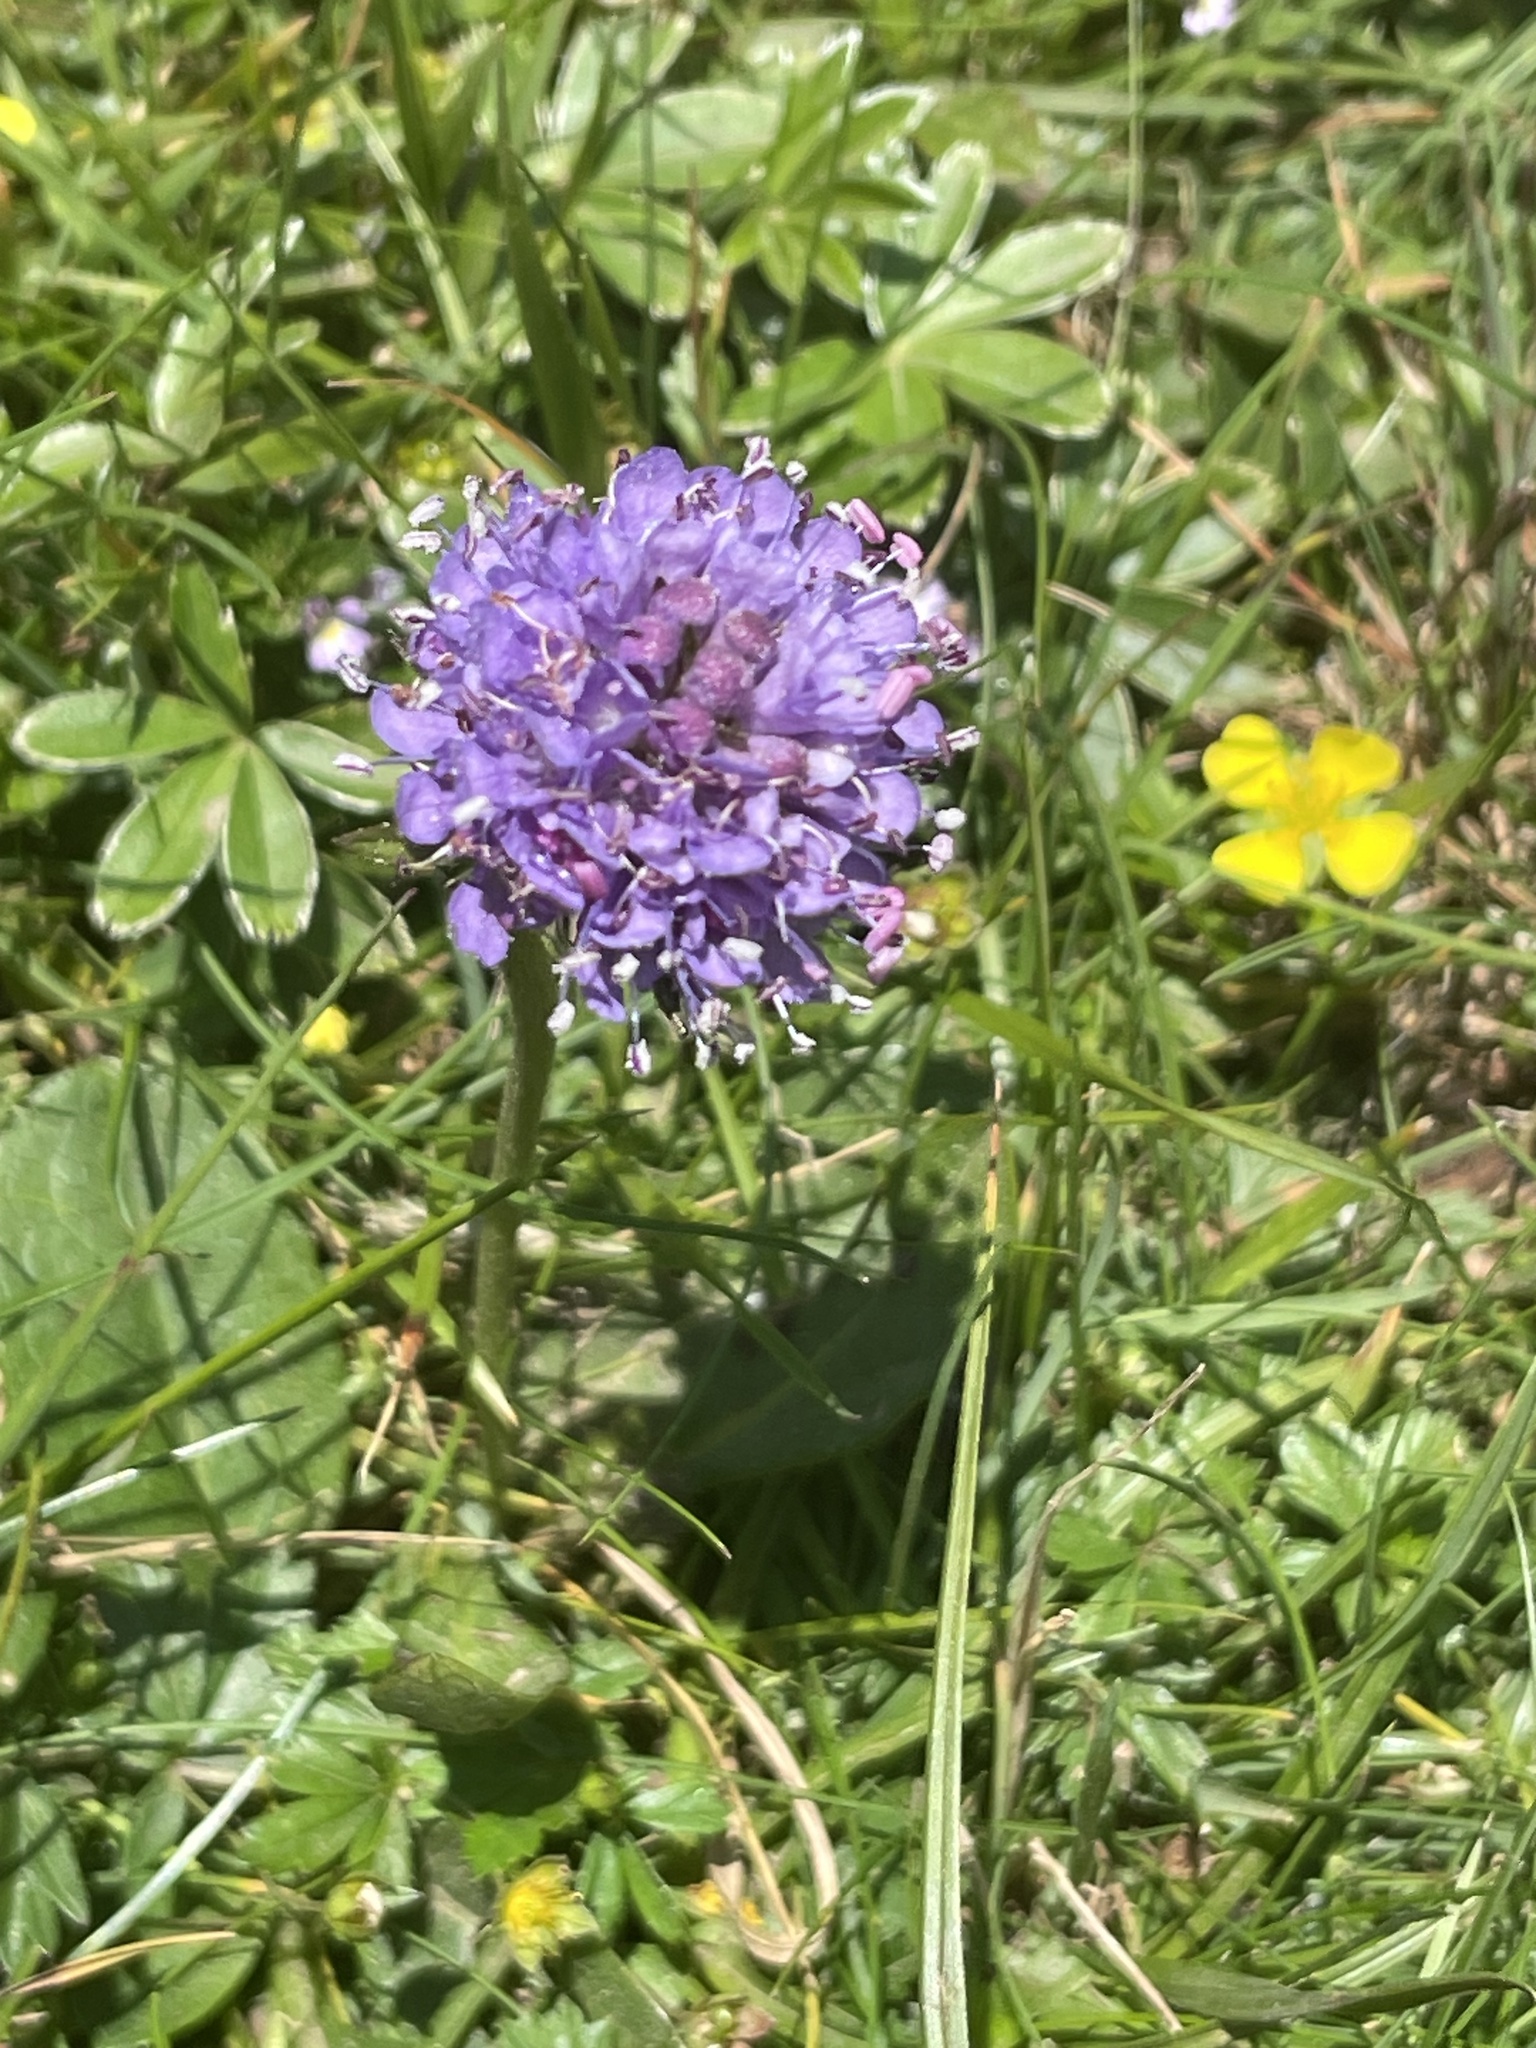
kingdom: Plantae
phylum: Tracheophyta
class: Magnoliopsida
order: Dipsacales
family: Caprifoliaceae
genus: Succisa
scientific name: Succisa pratensis
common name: Devil's-bit
